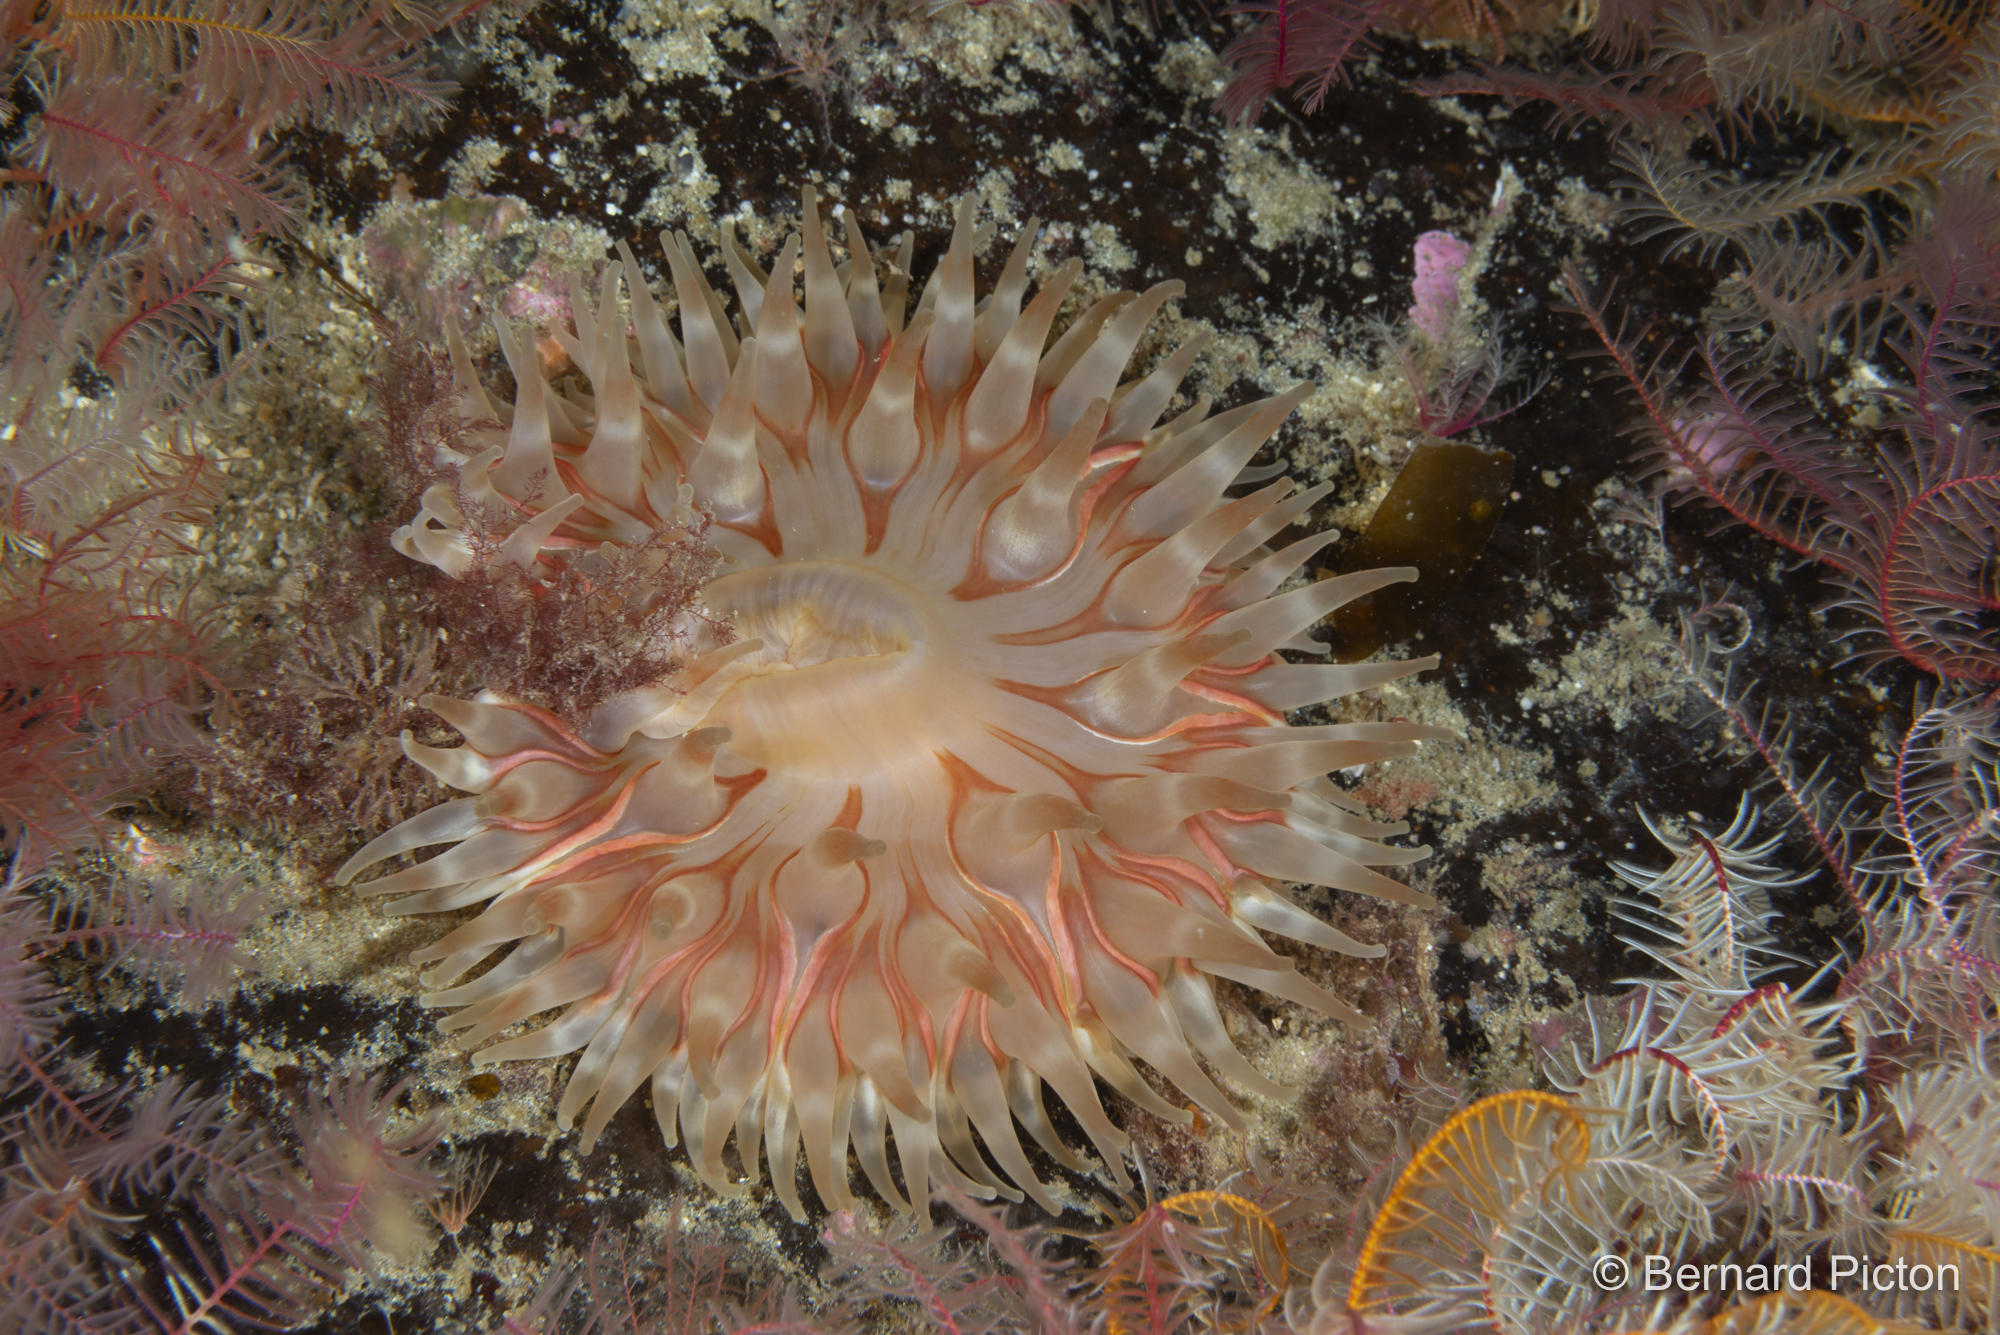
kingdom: Animalia
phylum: Cnidaria
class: Anthozoa
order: Actiniaria
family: Actiniidae
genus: Urticina
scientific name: Urticina felina
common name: Dahlia anemone
